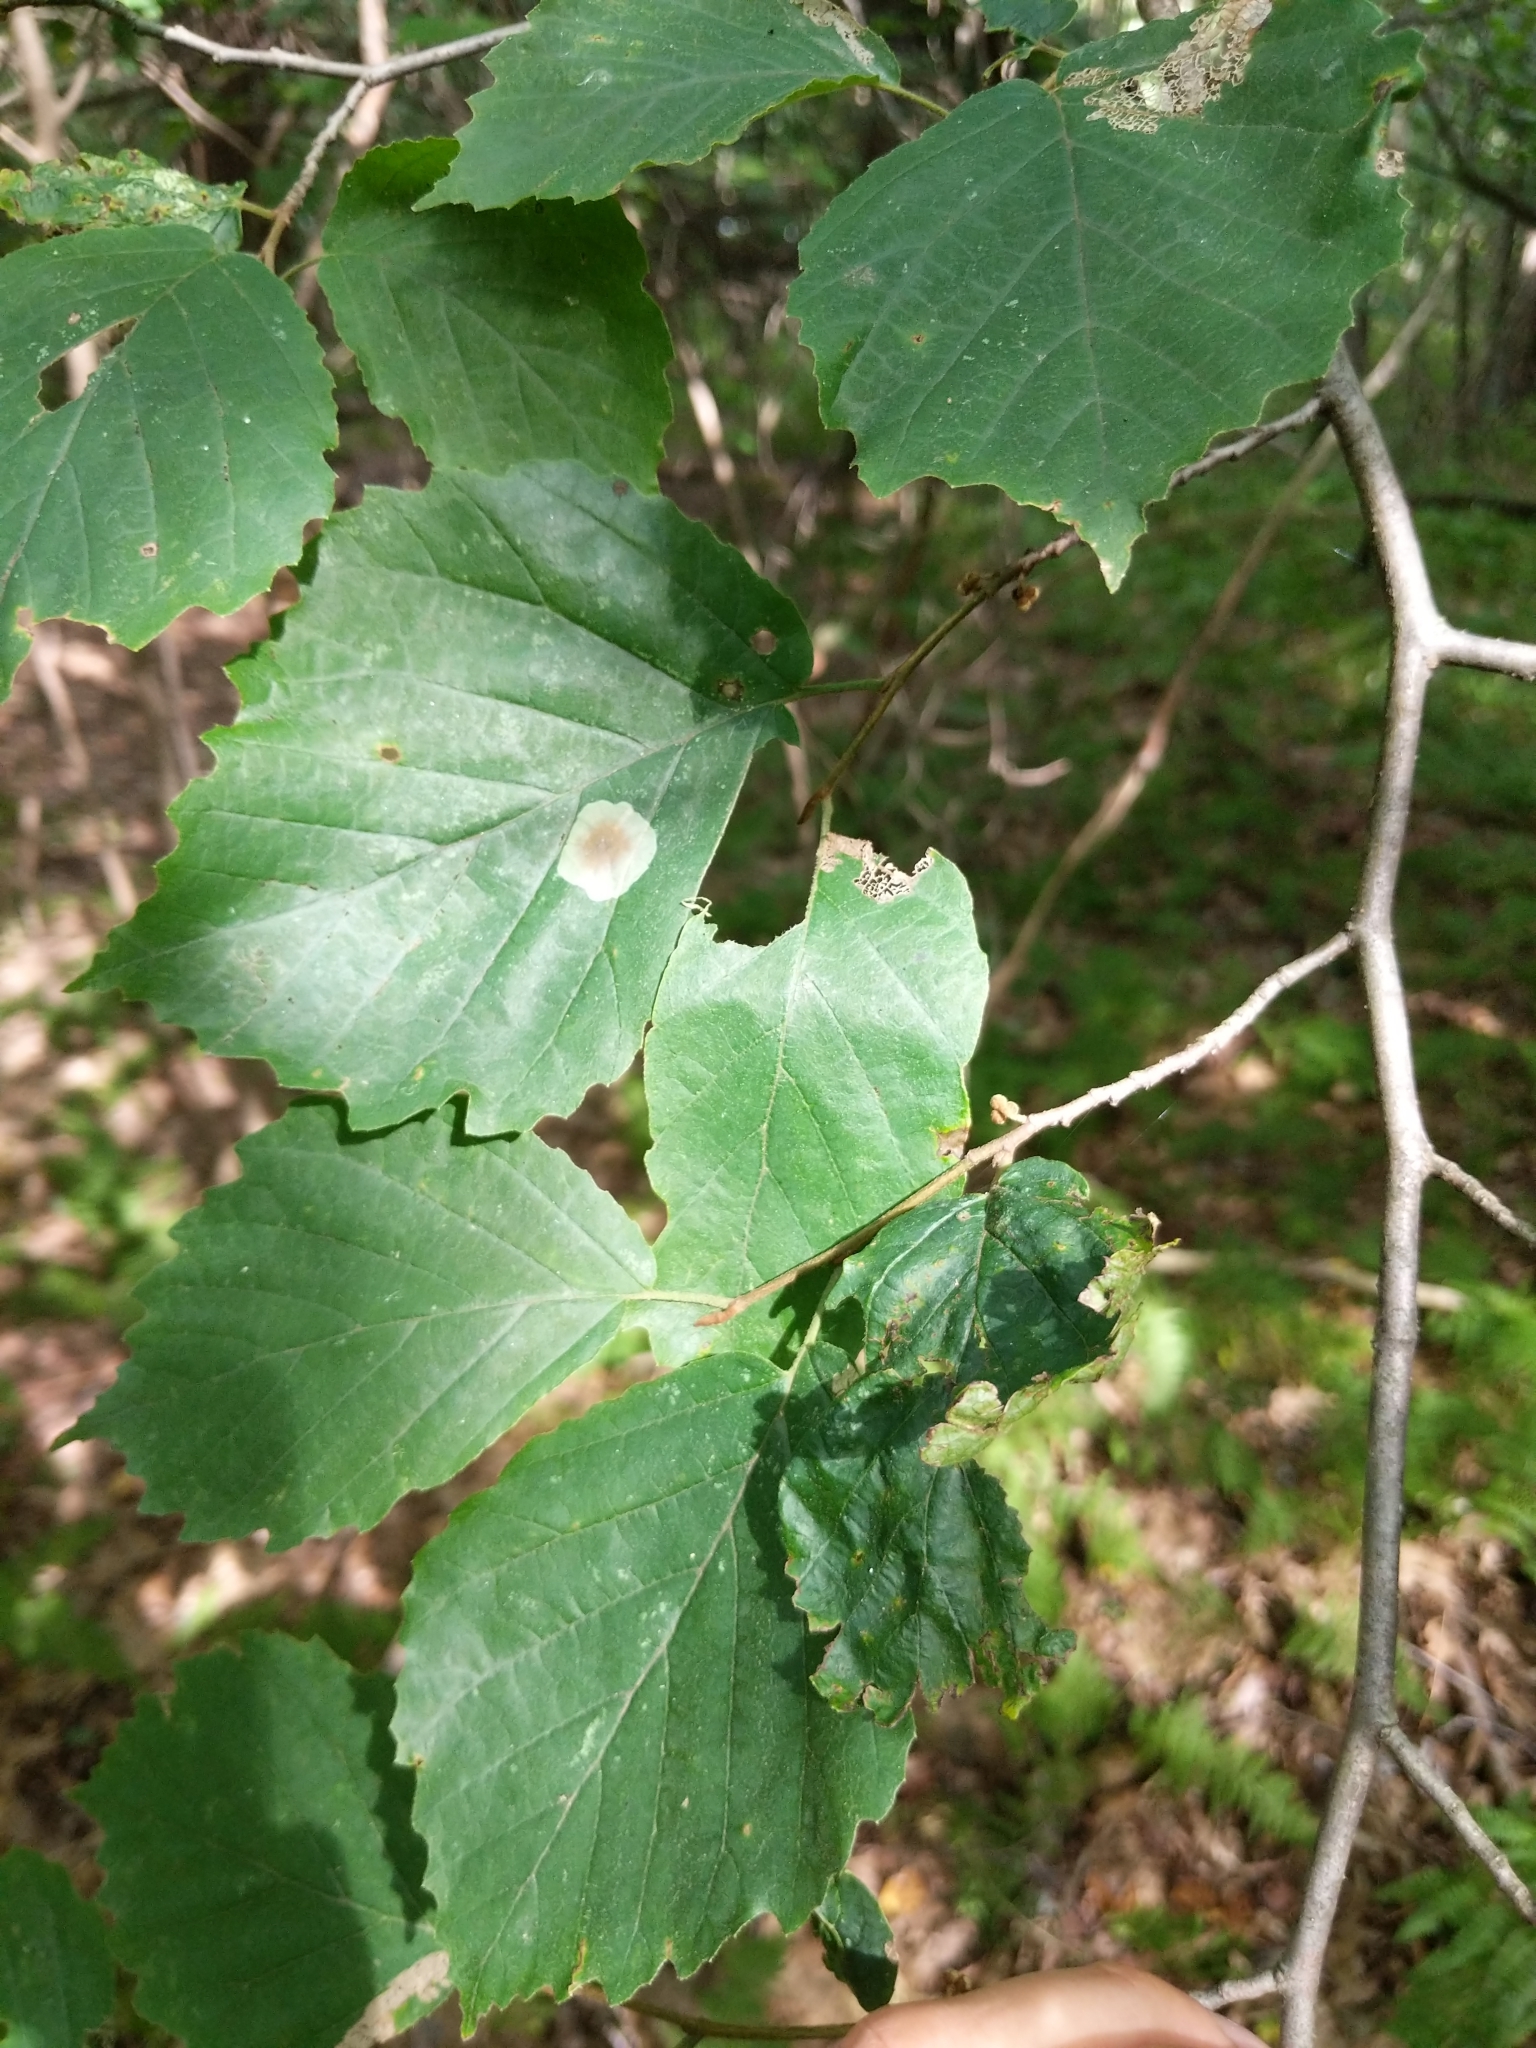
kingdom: Plantae
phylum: Tracheophyta
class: Magnoliopsida
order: Saxifragales
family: Hamamelidaceae
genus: Hamamelis
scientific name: Hamamelis virginiana
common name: Witch-hazel
